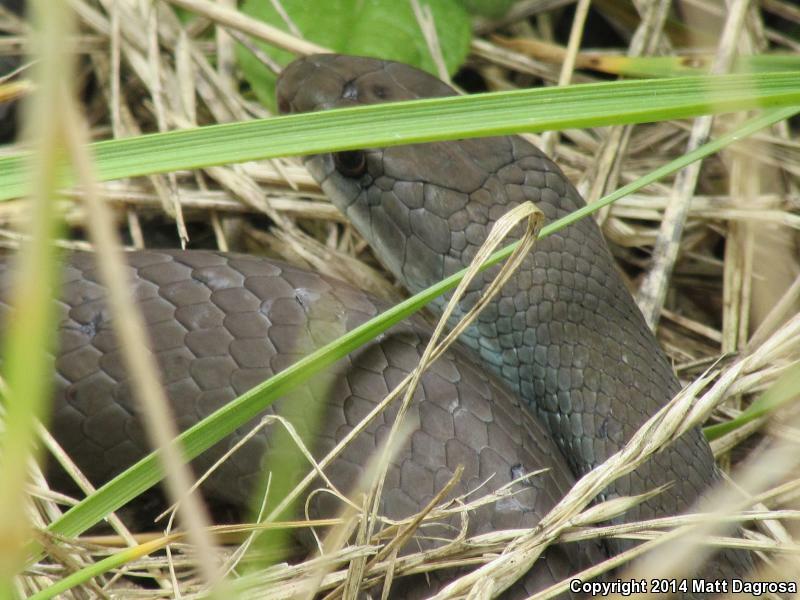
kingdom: Animalia
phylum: Chordata
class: Squamata
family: Colubridae
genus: Coluber
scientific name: Coluber constrictor
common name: Eastern racer
